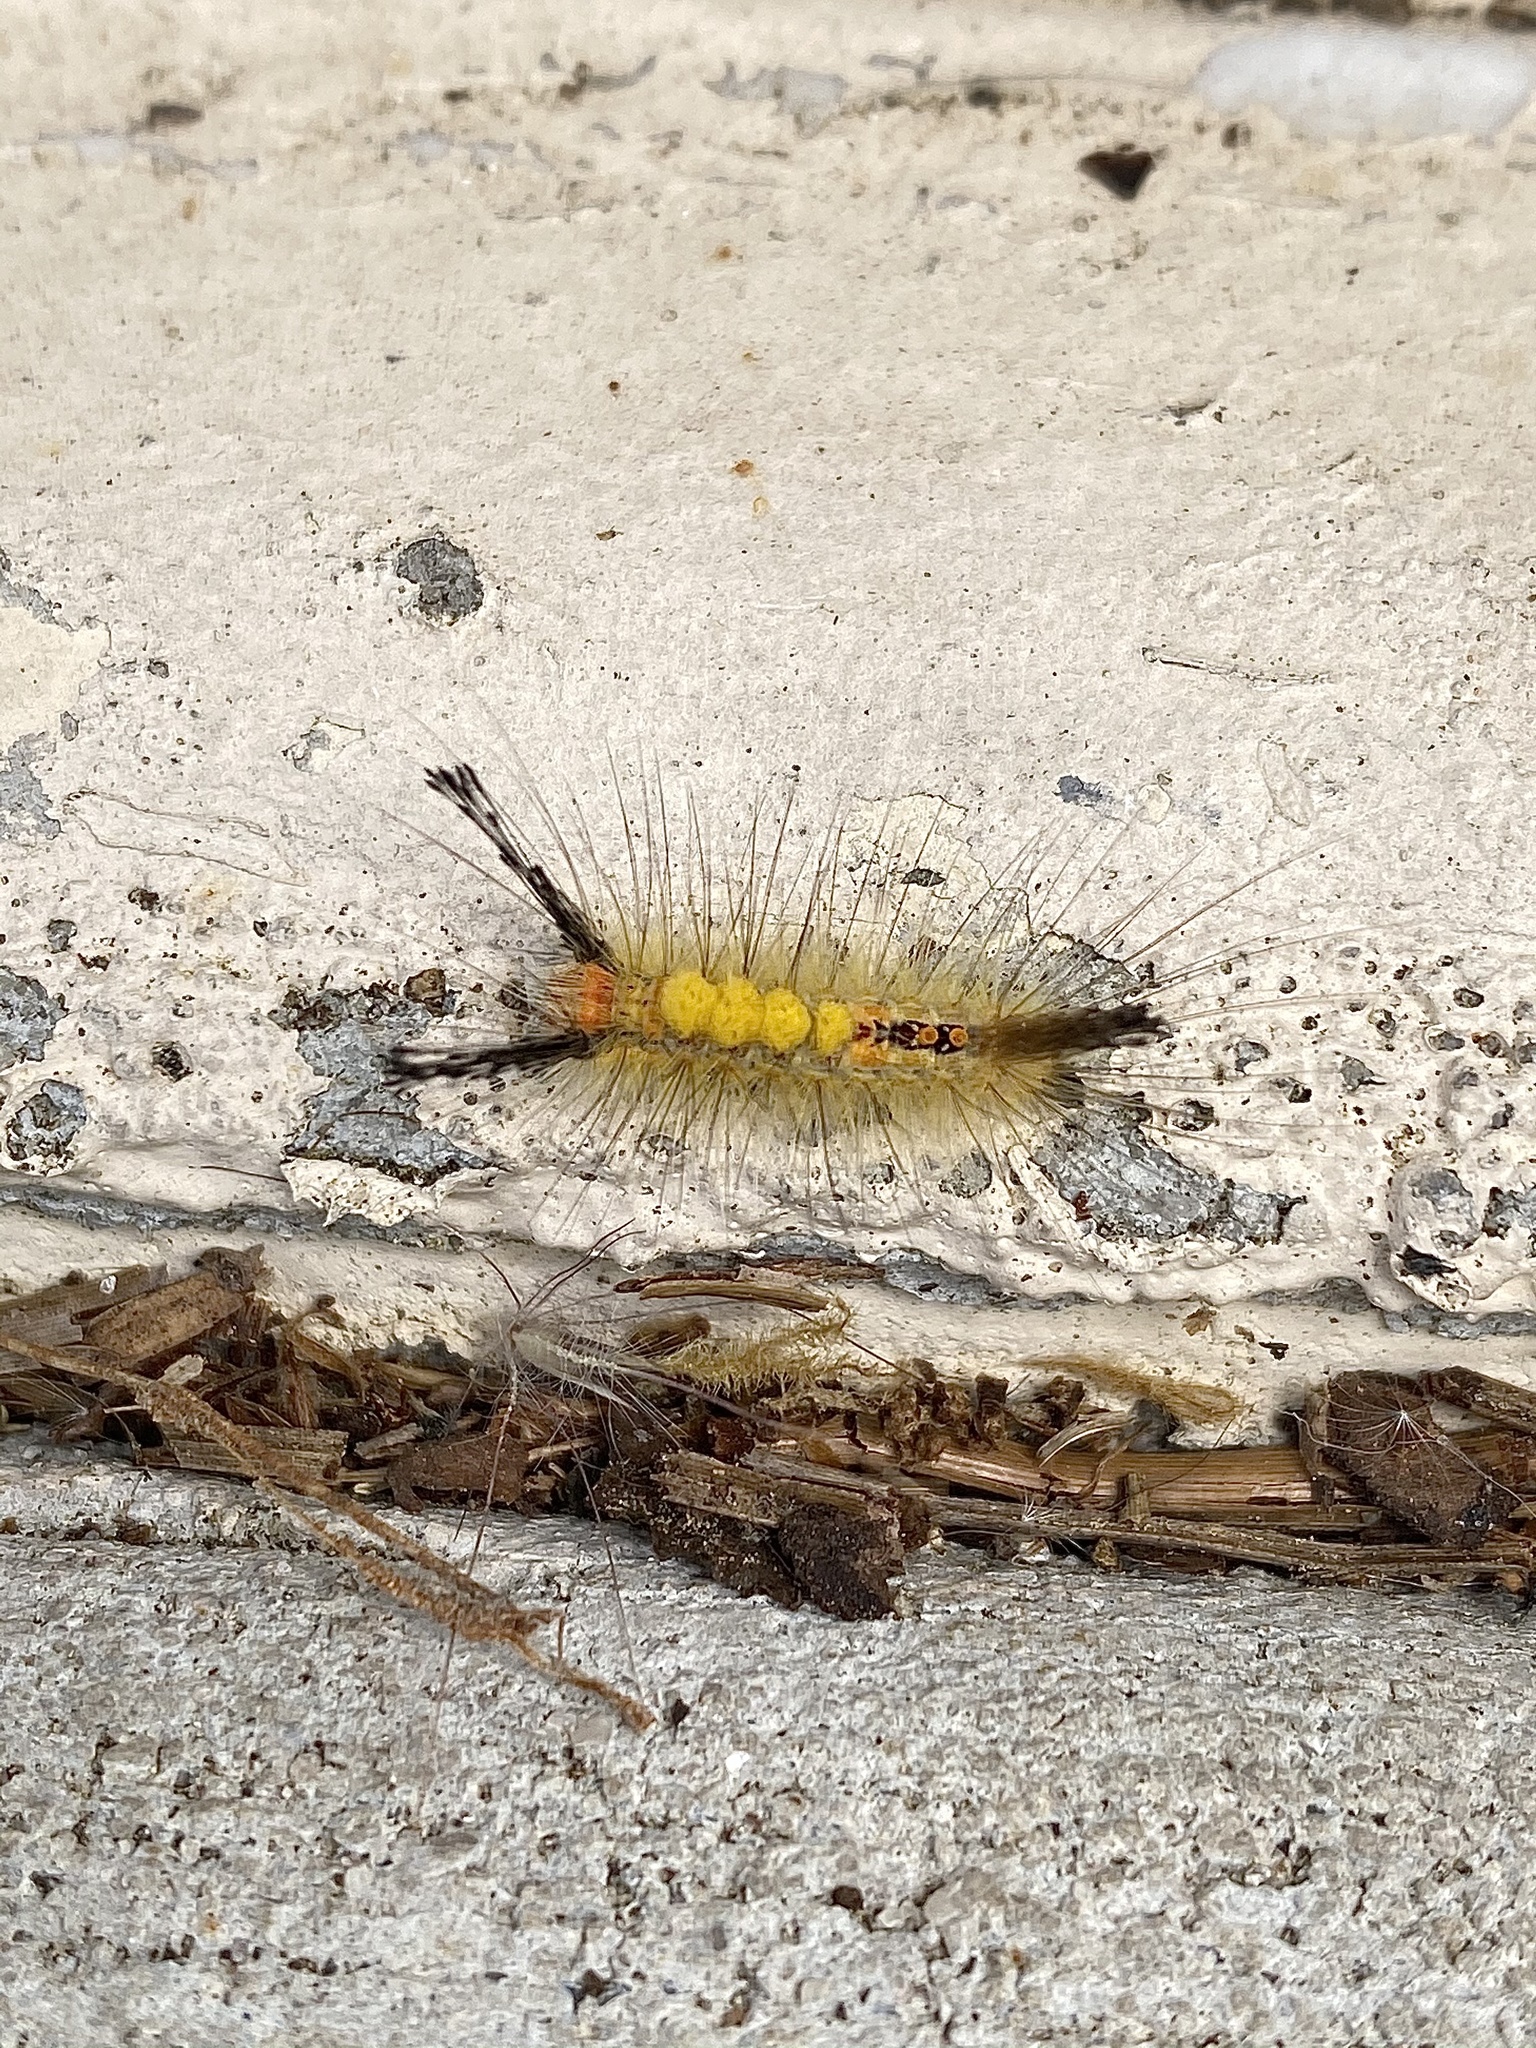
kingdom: Animalia
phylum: Arthropoda
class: Insecta
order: Lepidoptera
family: Erebidae
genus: Orgyia
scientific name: Orgyia detrita
